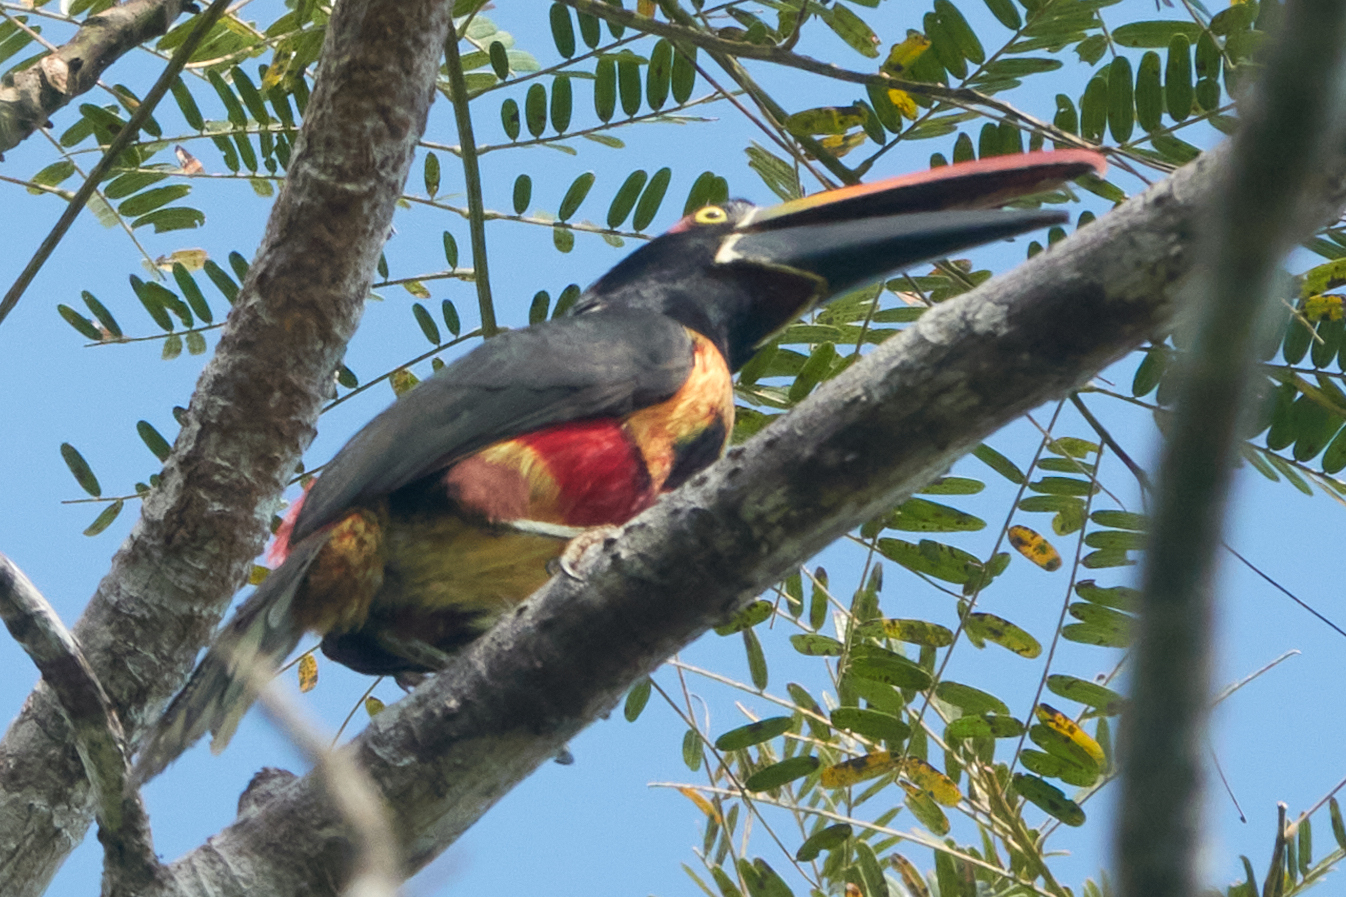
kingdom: Animalia
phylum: Chordata
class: Aves
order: Piciformes
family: Ramphastidae
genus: Pteroglossus
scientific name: Pteroglossus frantzii
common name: Fiery-billed aracari
